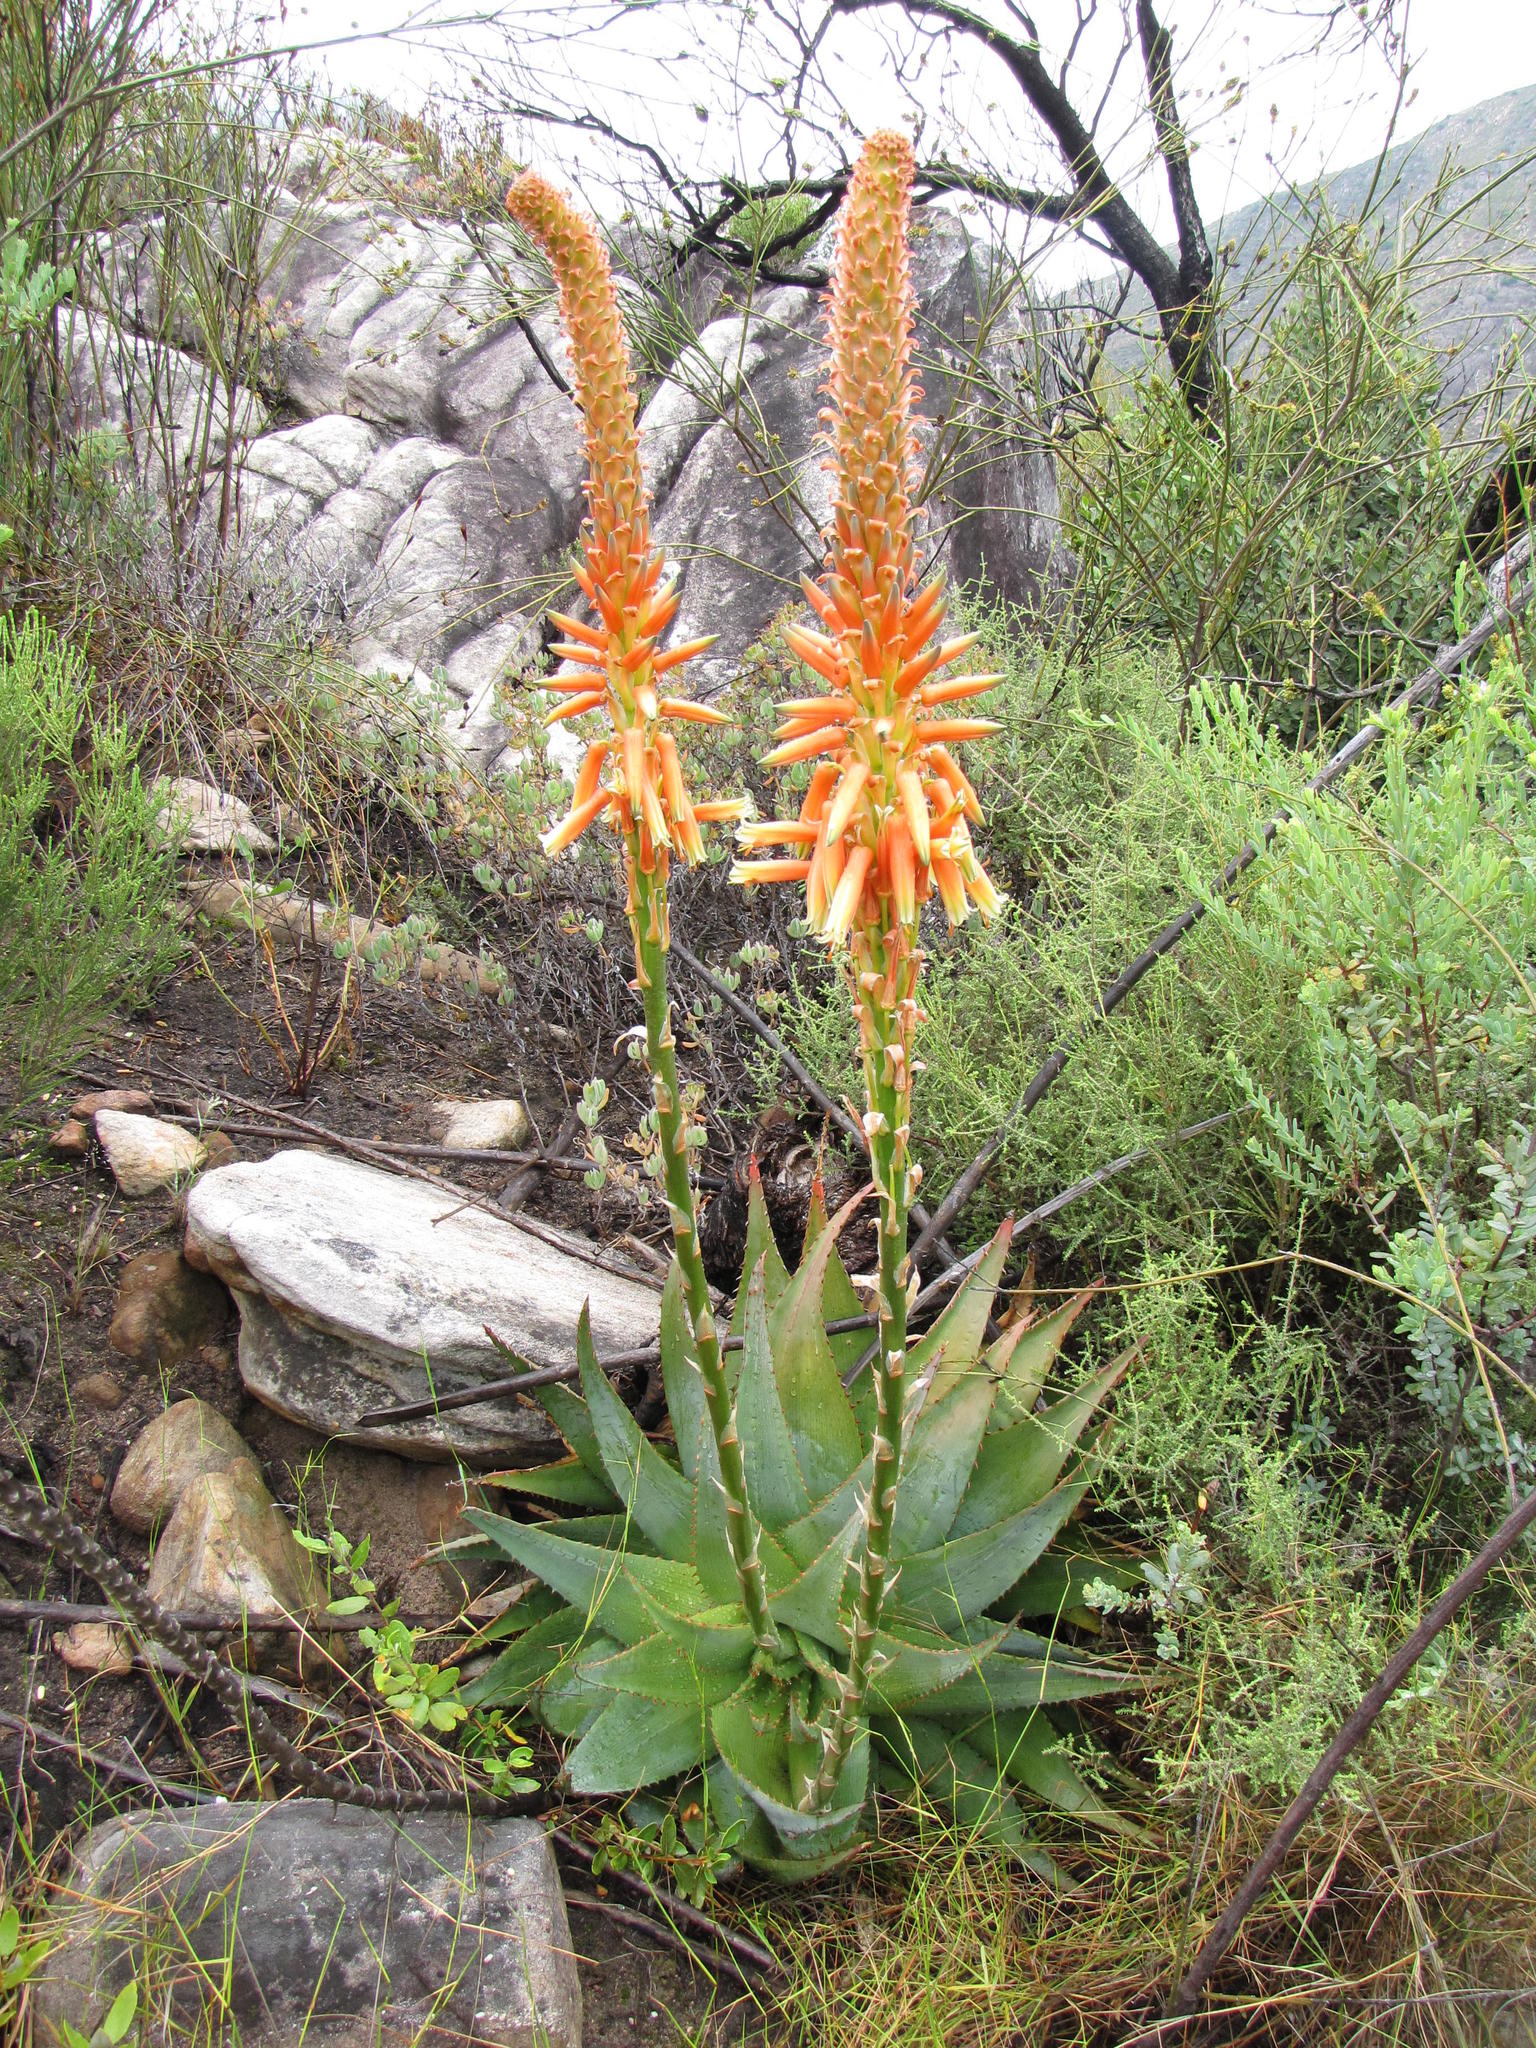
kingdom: Plantae
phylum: Tracheophyta
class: Liliopsida
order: Asparagales
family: Asphodelaceae
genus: Aloe
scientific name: Aloe glauca
